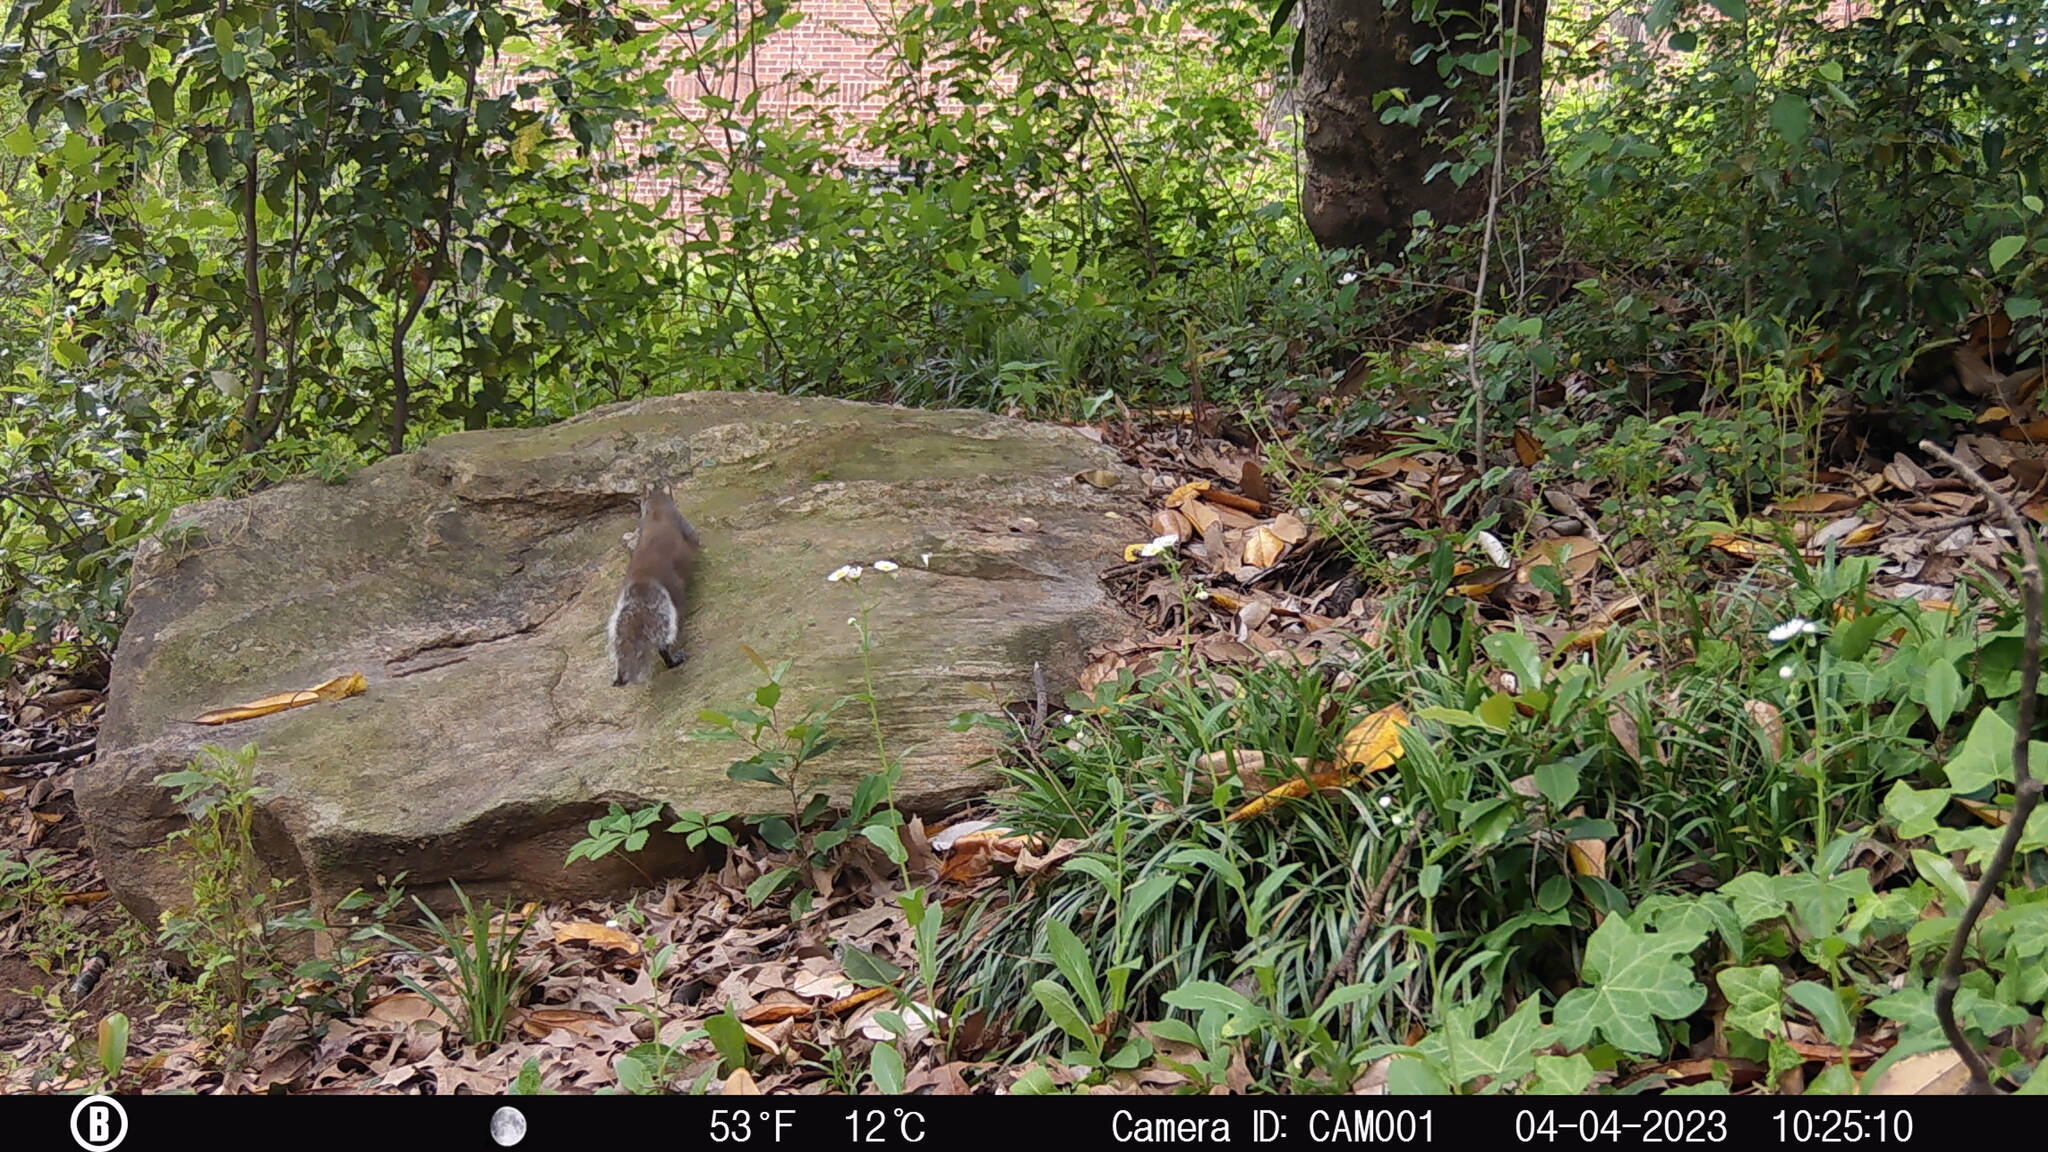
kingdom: Animalia
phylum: Chordata
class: Mammalia
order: Rodentia
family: Sciuridae
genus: Sciurus
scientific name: Sciurus carolinensis
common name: Eastern gray squirrel
